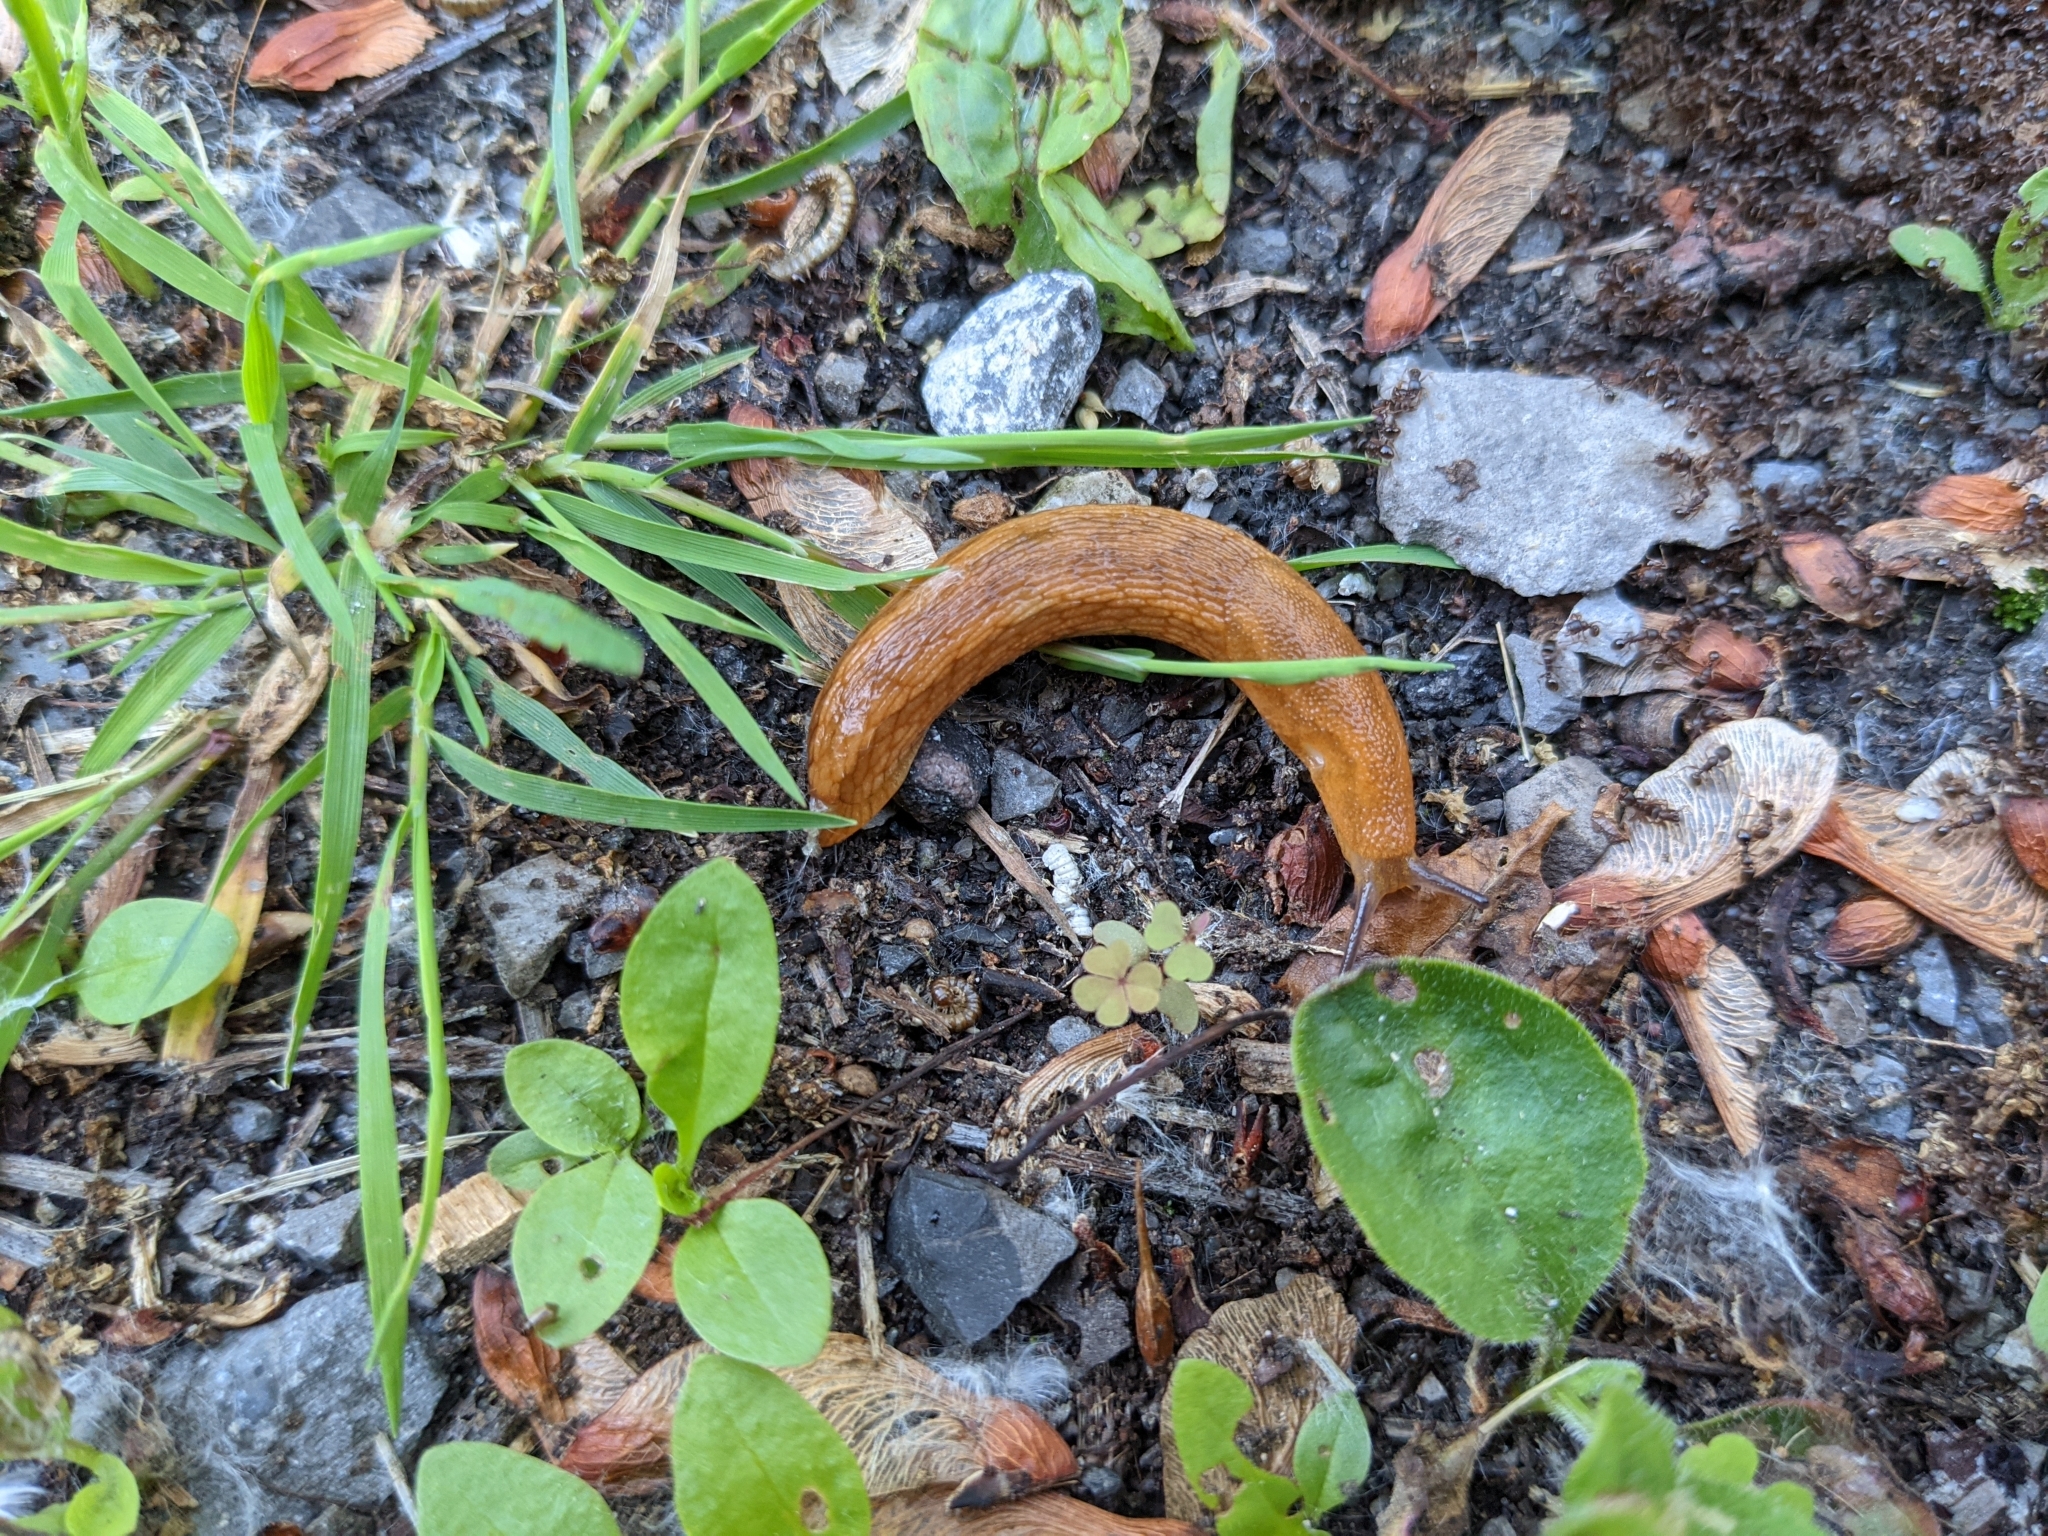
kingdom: Animalia
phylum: Mollusca
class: Gastropoda
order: Stylommatophora
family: Arionidae
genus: Arion
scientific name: Arion subfuscus
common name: Dusky arion
